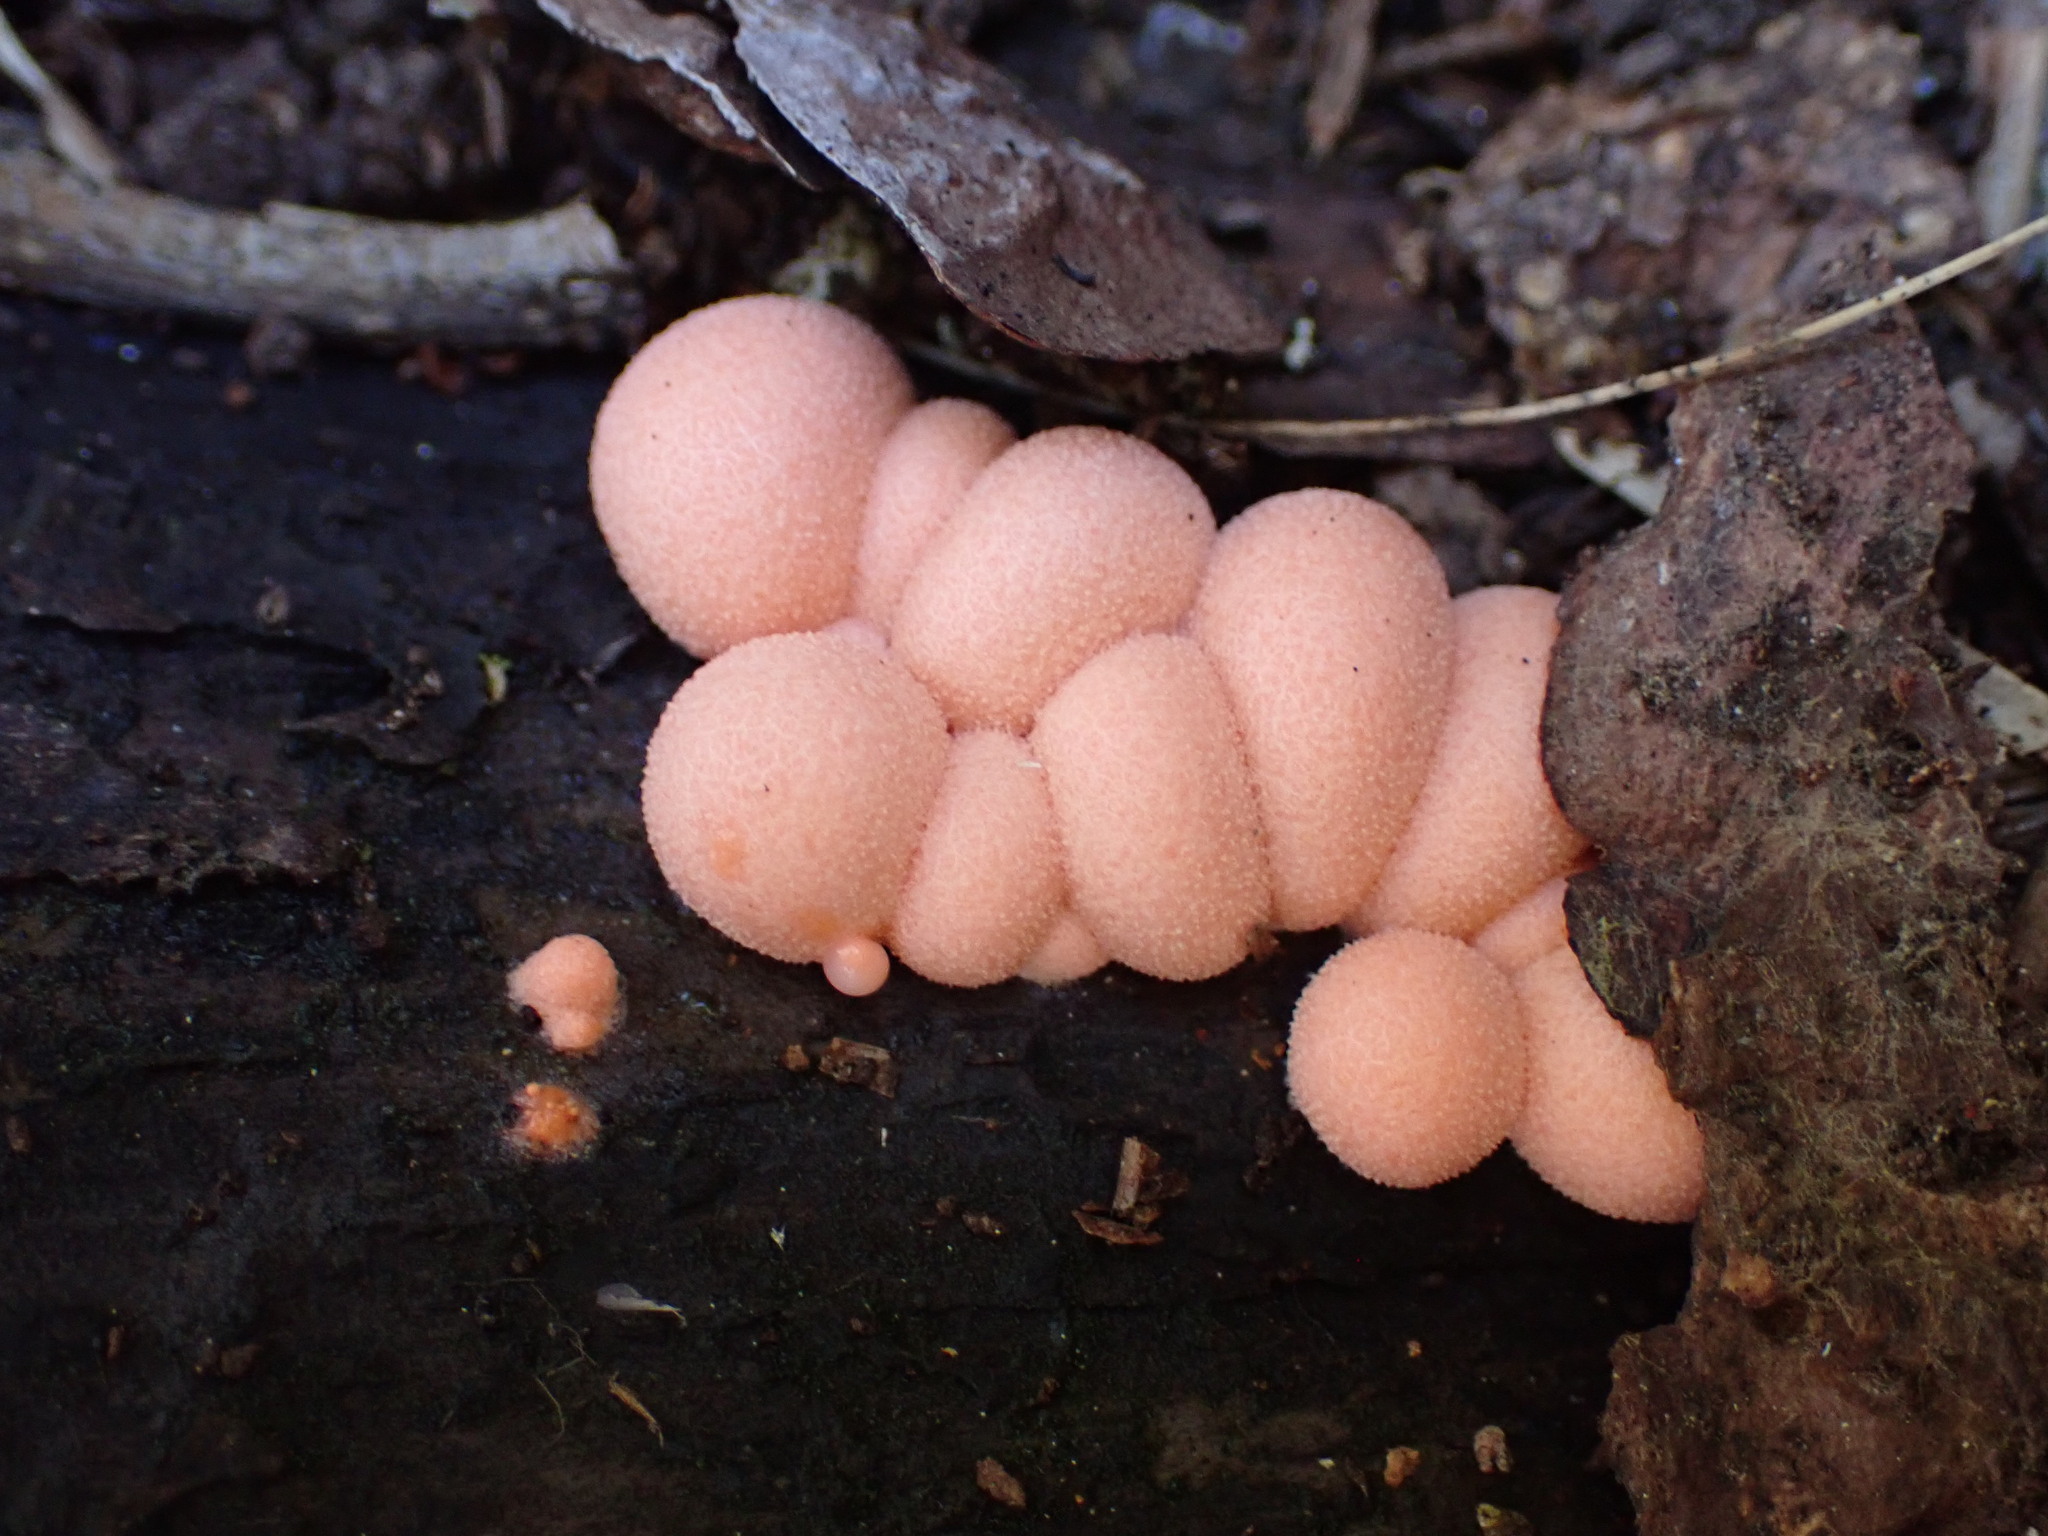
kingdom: Protozoa
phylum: Mycetozoa
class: Myxomycetes
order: Cribrariales
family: Tubiferaceae
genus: Lycogala
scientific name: Lycogala
